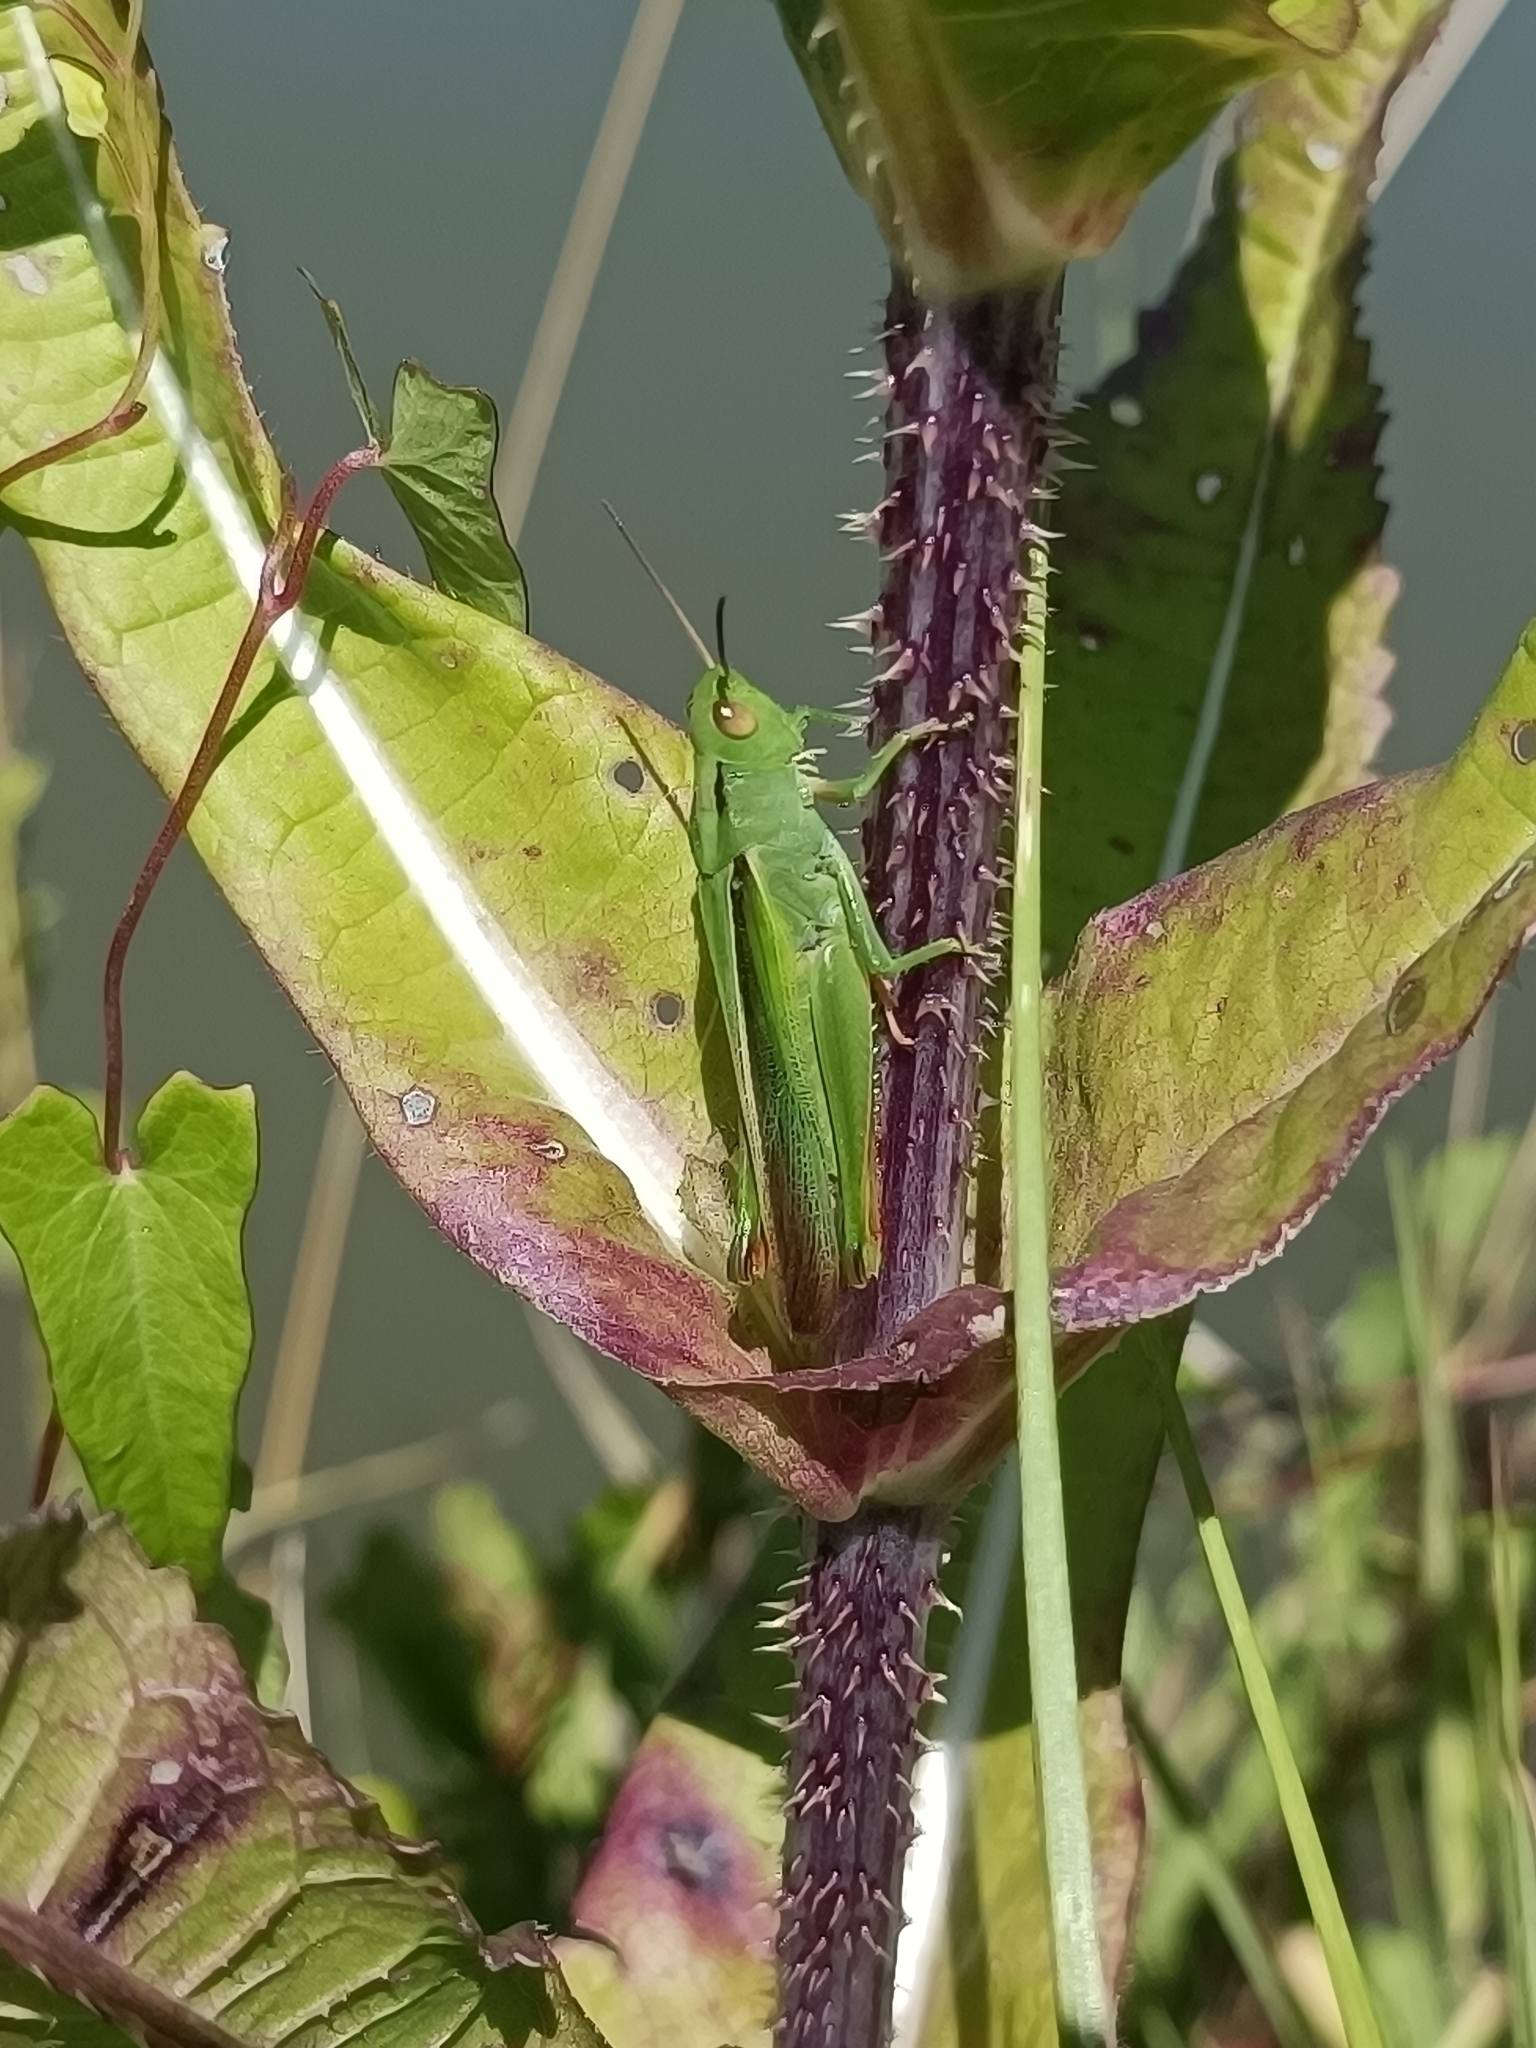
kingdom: Animalia
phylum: Arthropoda
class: Insecta
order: Orthoptera
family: Acrididae
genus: Paracinema
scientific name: Paracinema tricolor
